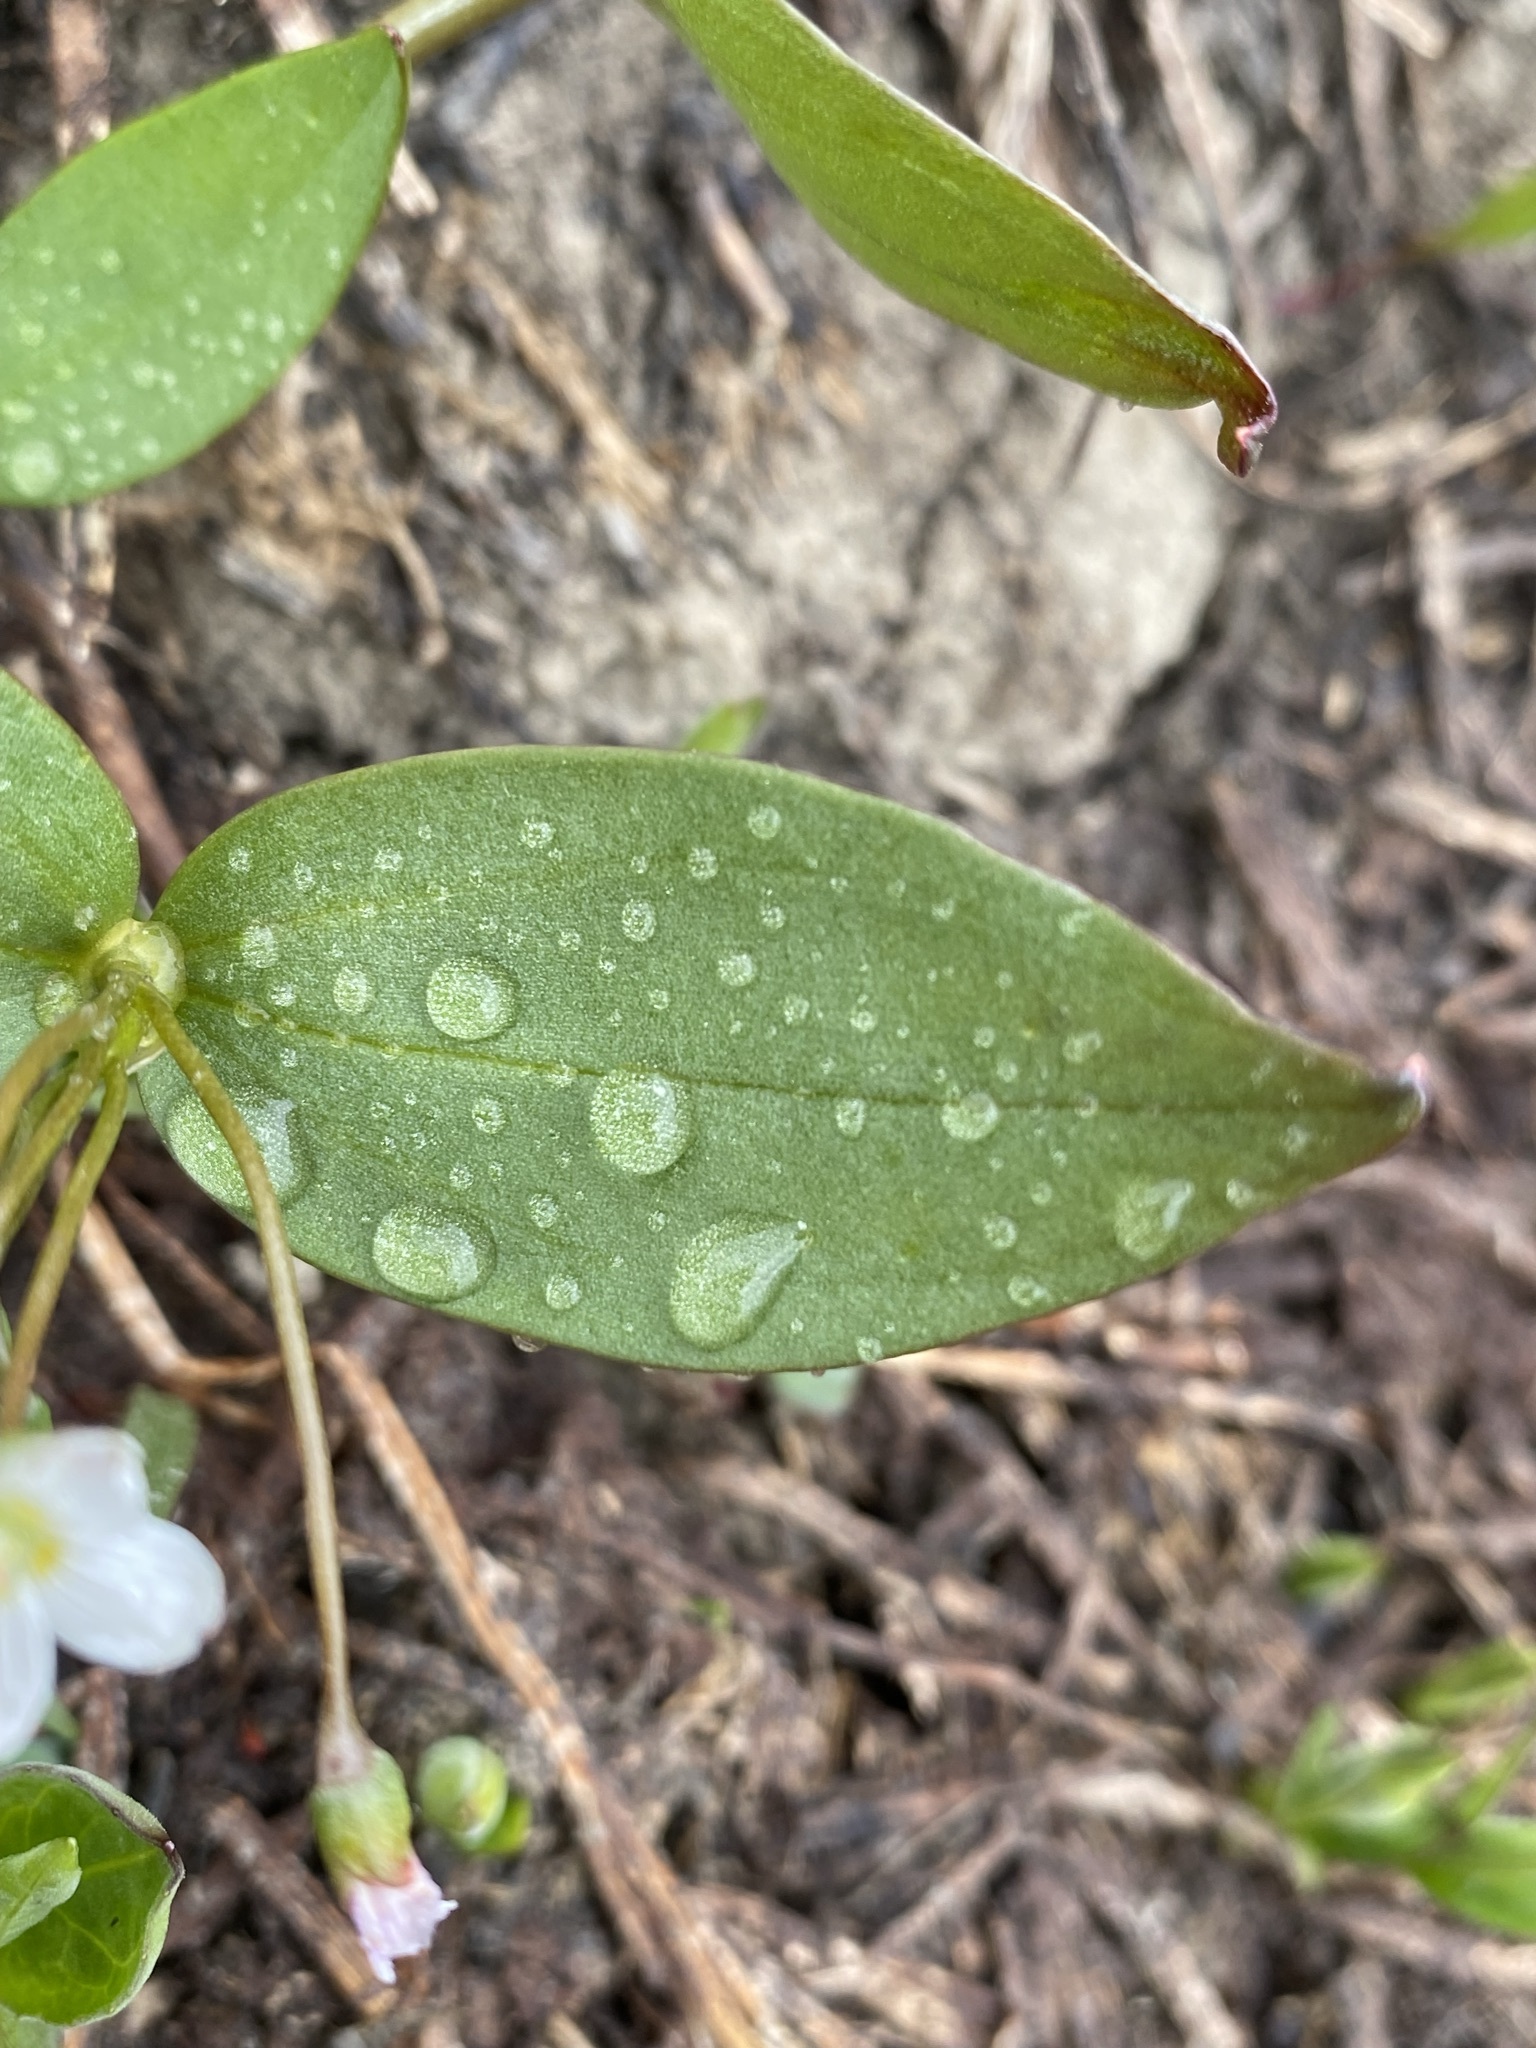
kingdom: Plantae
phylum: Tracheophyta
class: Magnoliopsida
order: Caryophyllales
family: Montiaceae
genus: Claytonia
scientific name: Claytonia lanceolata
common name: Western spring-beauty
